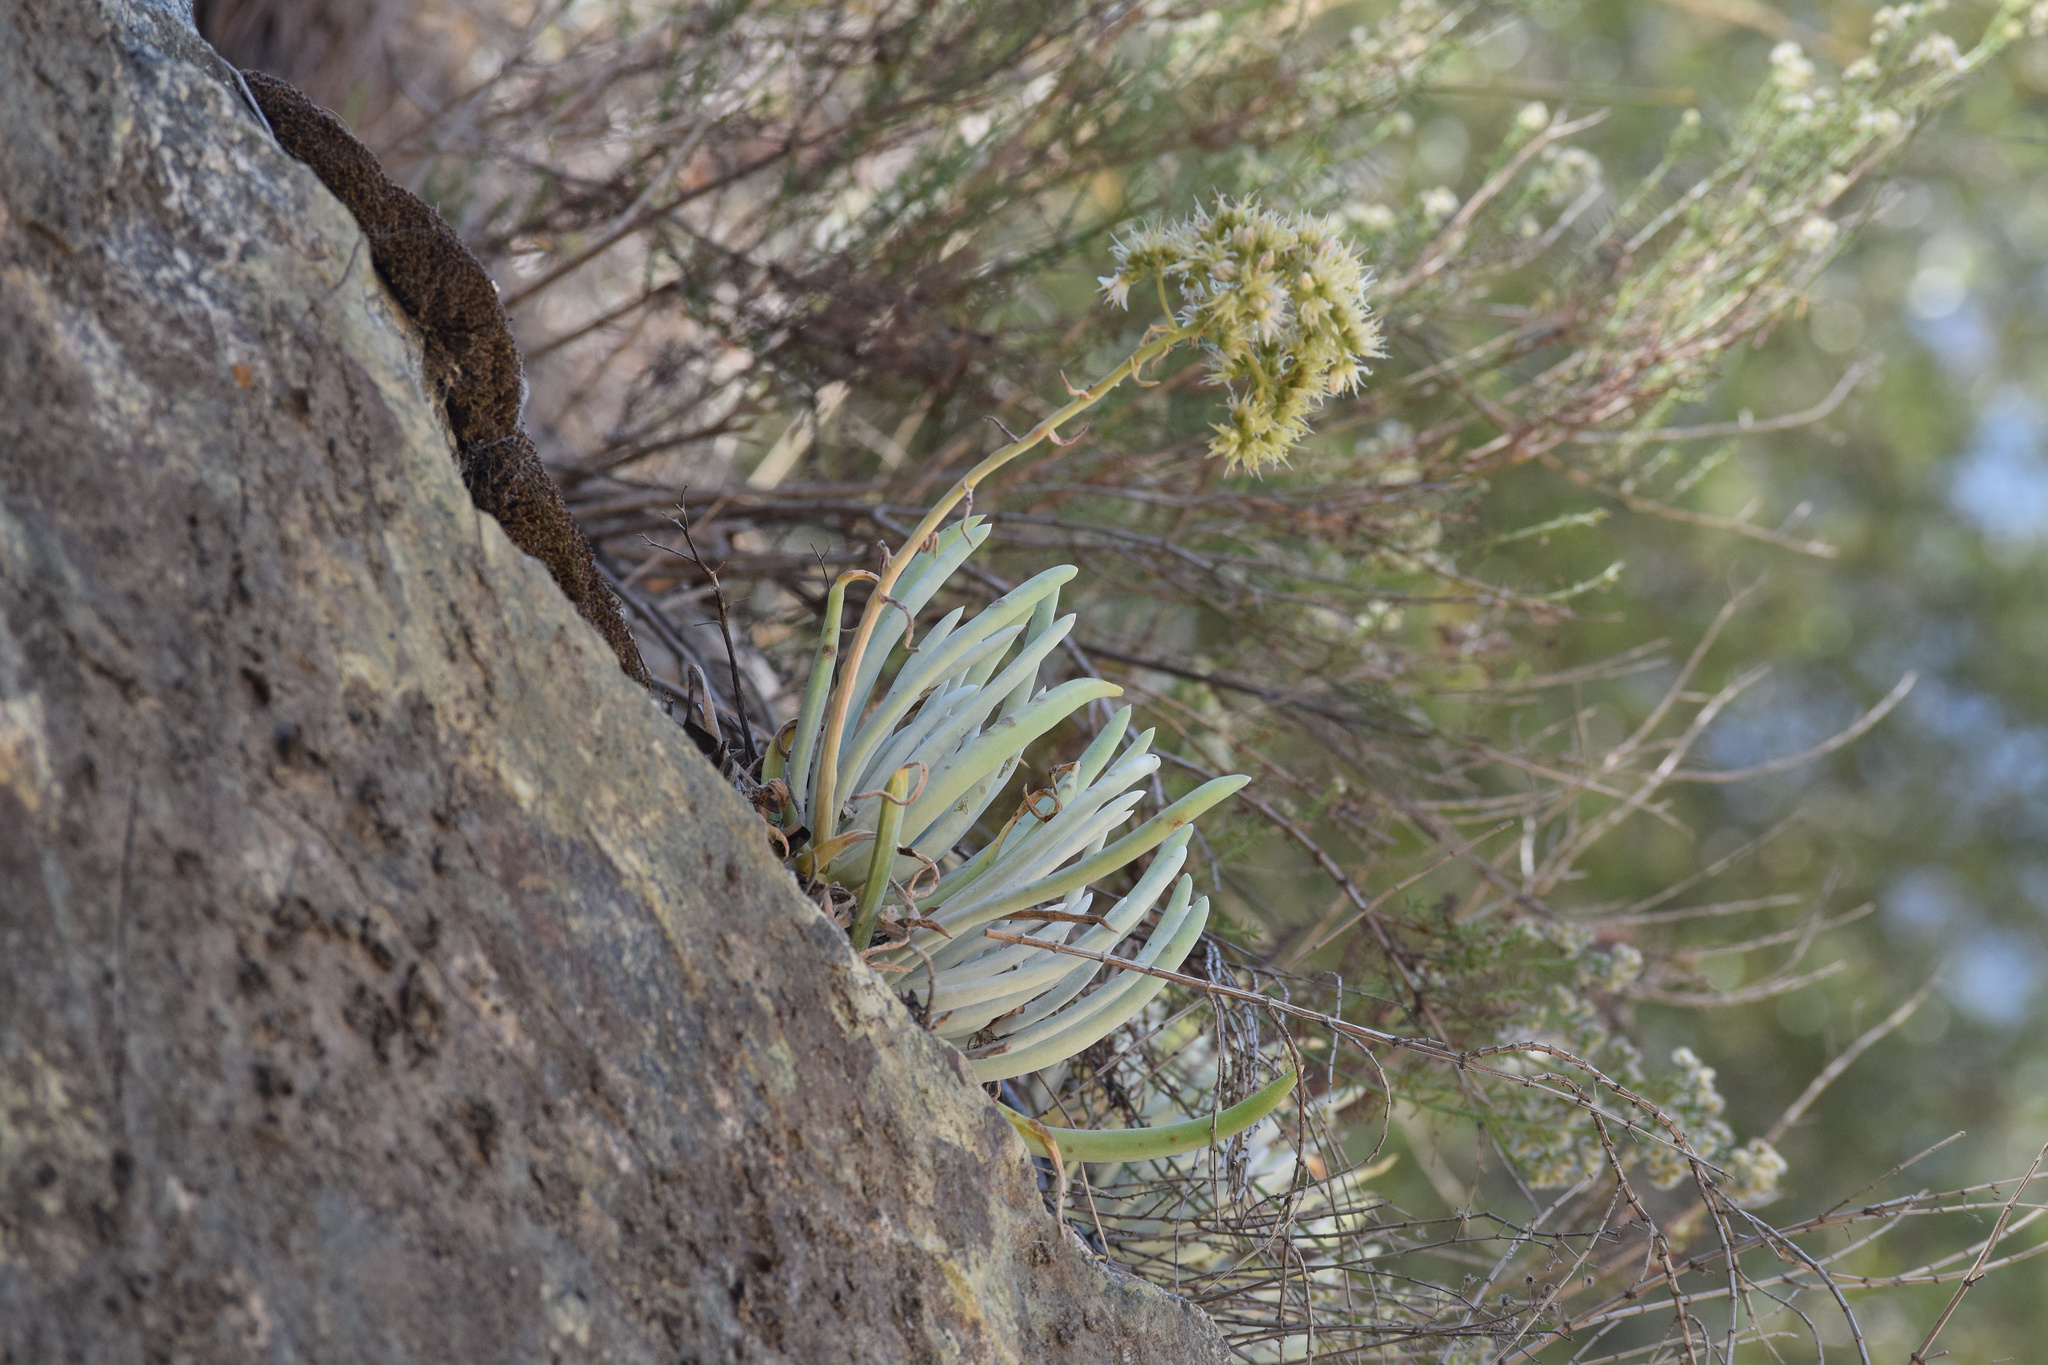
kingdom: Plantae
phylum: Tracheophyta
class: Magnoliopsida
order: Saxifragales
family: Crassulaceae
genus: Dudleya
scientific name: Dudleya densiflora
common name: San gabriel mountains dudleya
